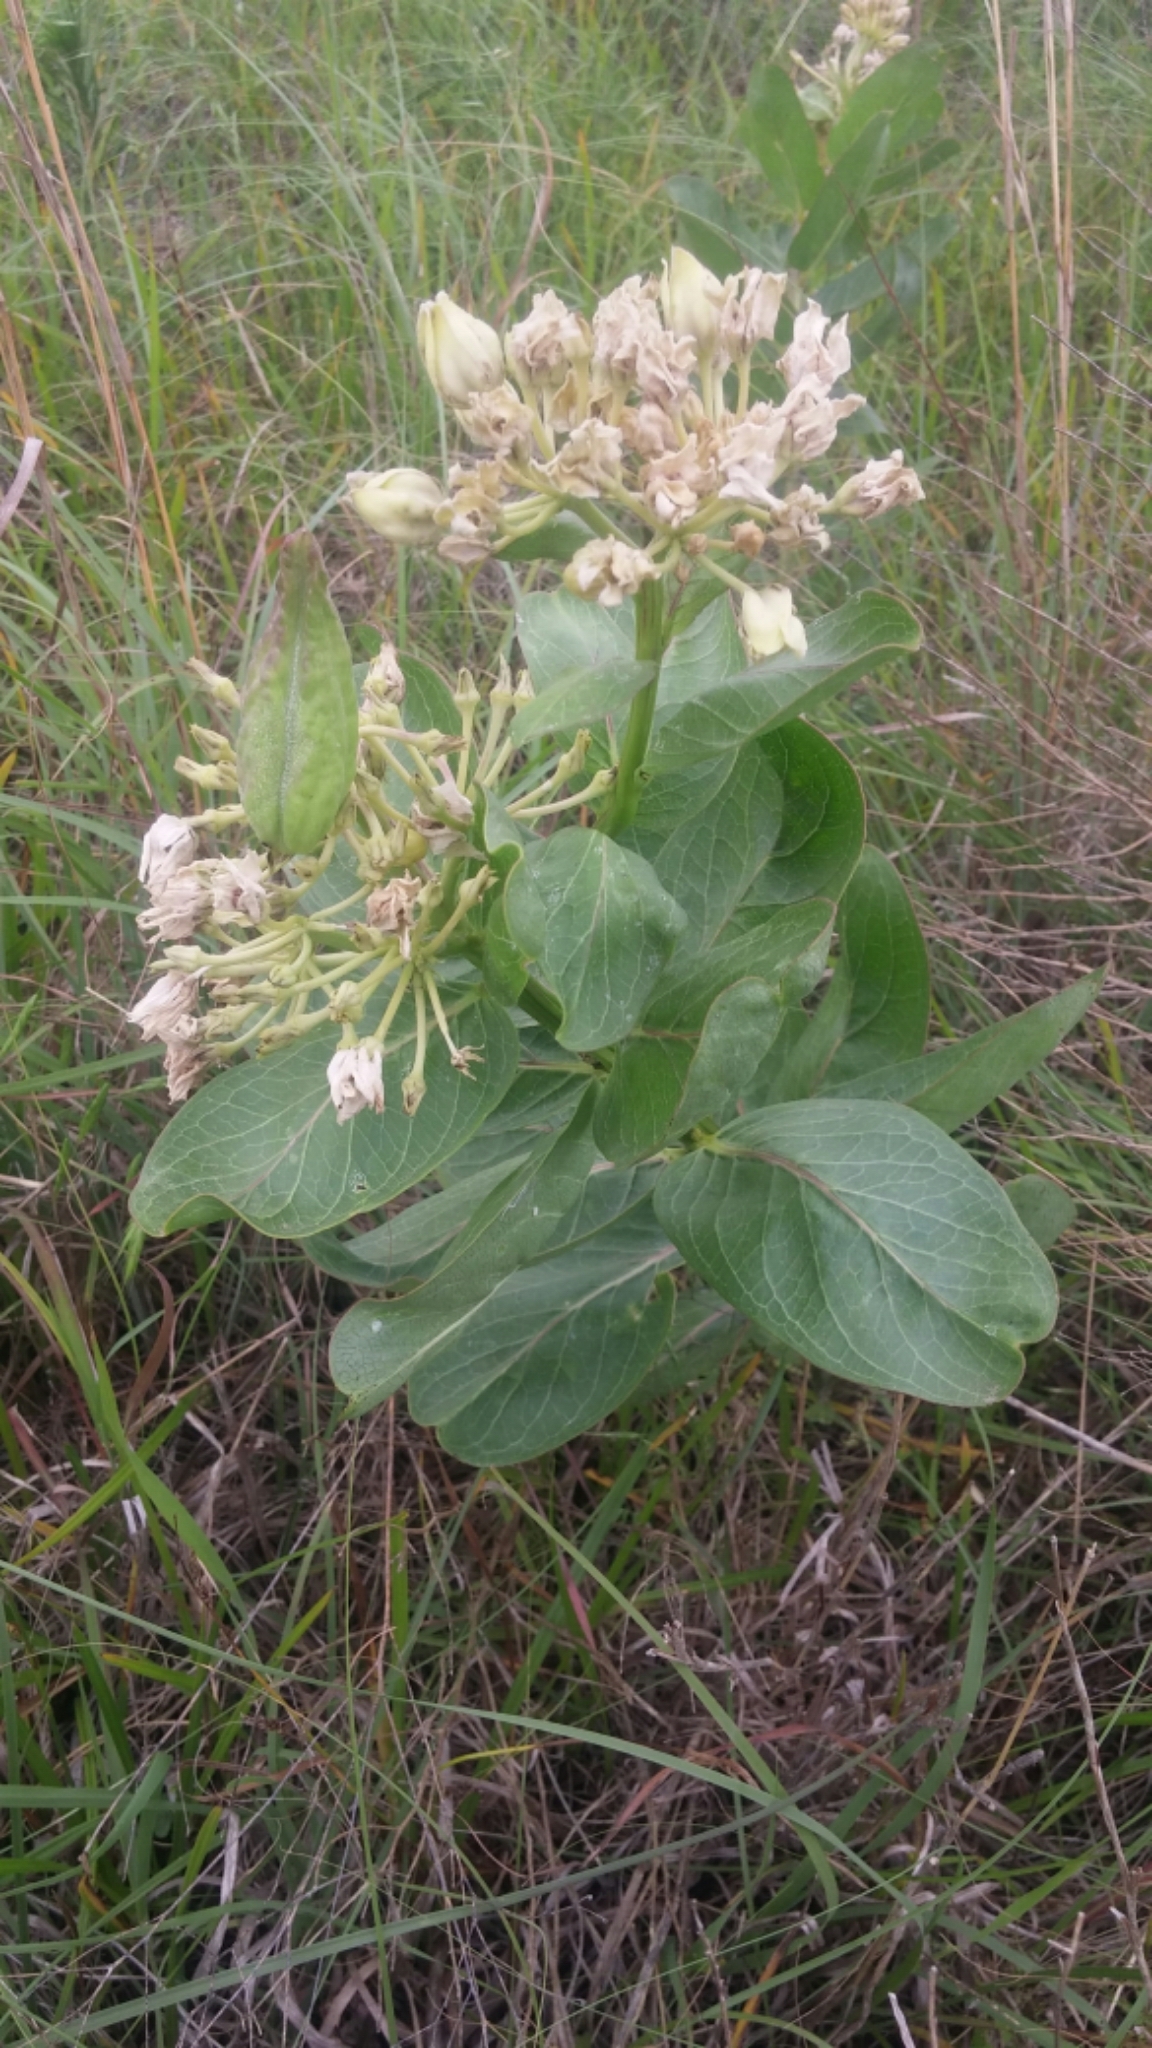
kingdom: Plantae
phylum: Tracheophyta
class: Magnoliopsida
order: Gentianales
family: Apocynaceae
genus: Asclepias
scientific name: Asclepias viridis
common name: Antelope-horns
